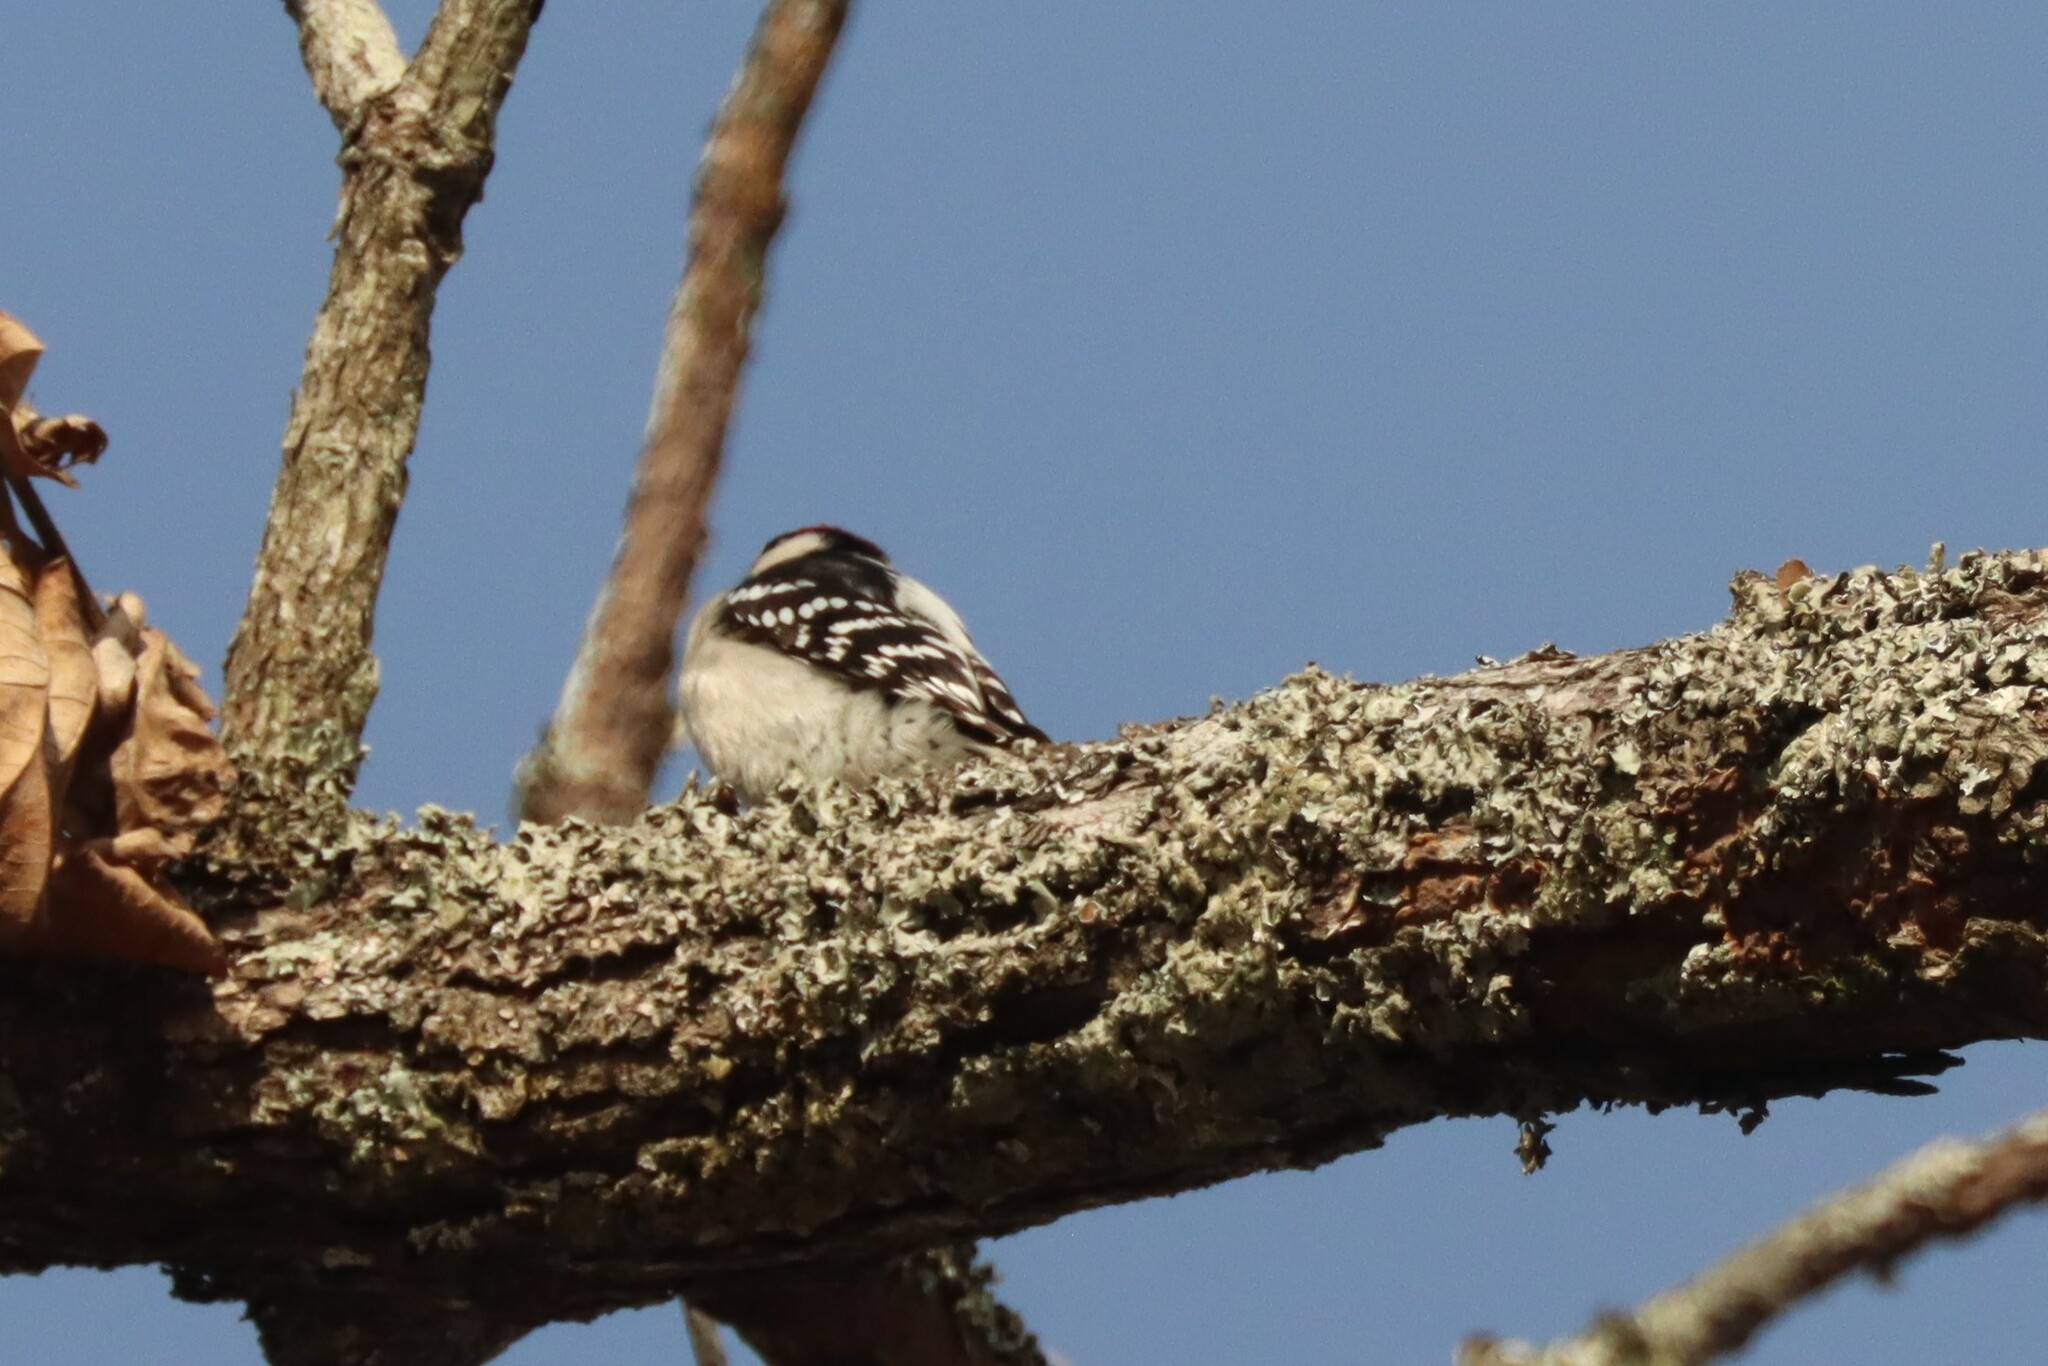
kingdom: Animalia
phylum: Chordata
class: Aves
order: Piciformes
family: Picidae
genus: Dryobates
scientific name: Dryobates pubescens
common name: Downy woodpecker
